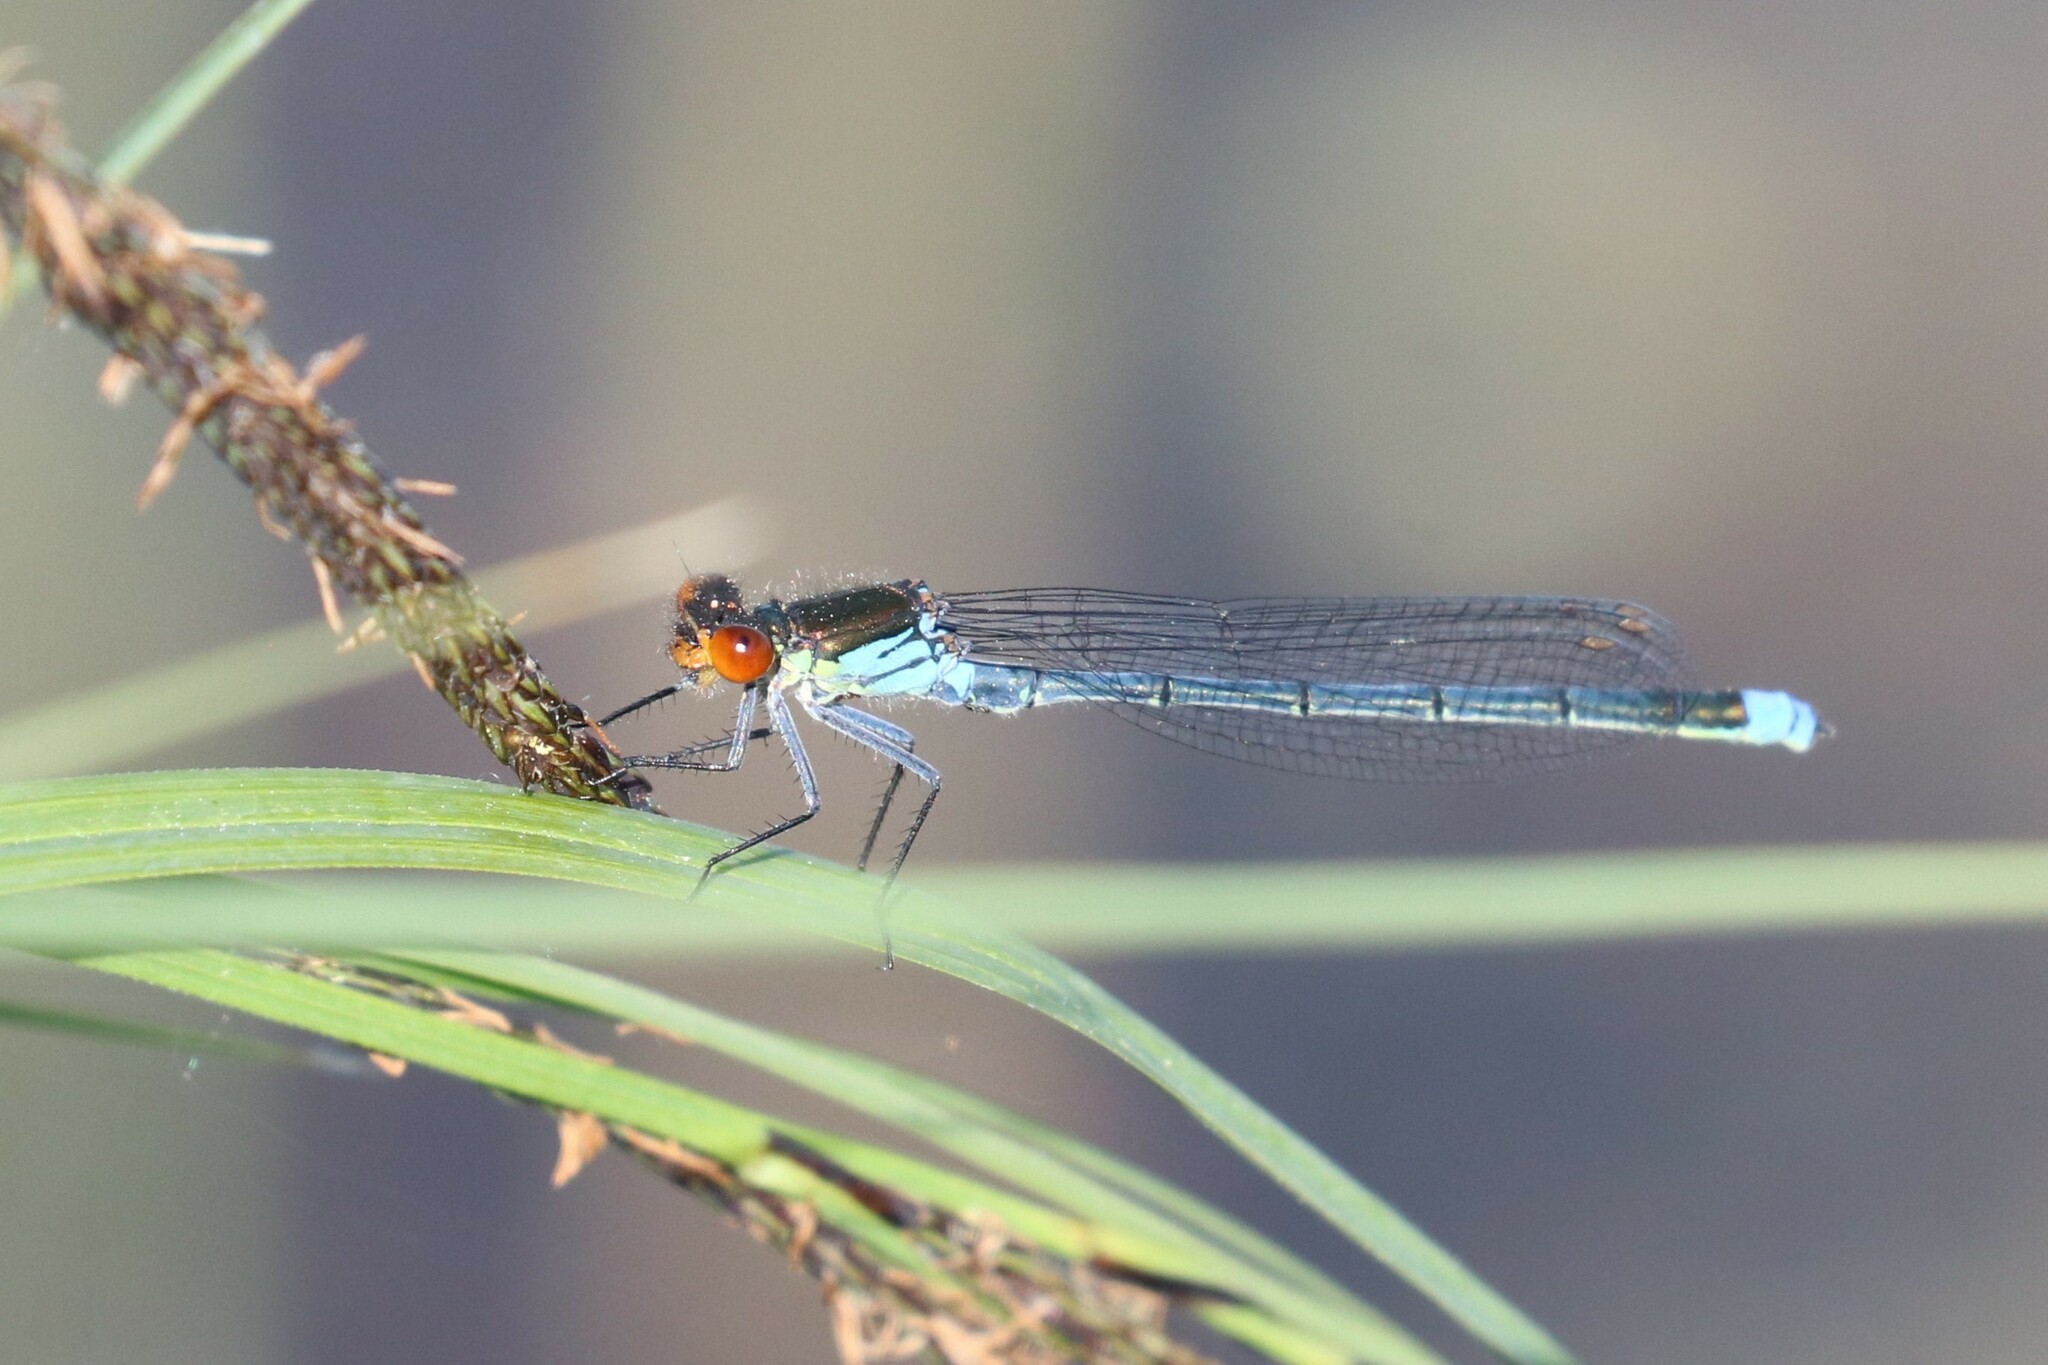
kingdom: Animalia
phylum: Arthropoda
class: Insecta
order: Odonata
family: Coenagrionidae
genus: Erythromma
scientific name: Erythromma najas
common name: Red-eyed damselfly
